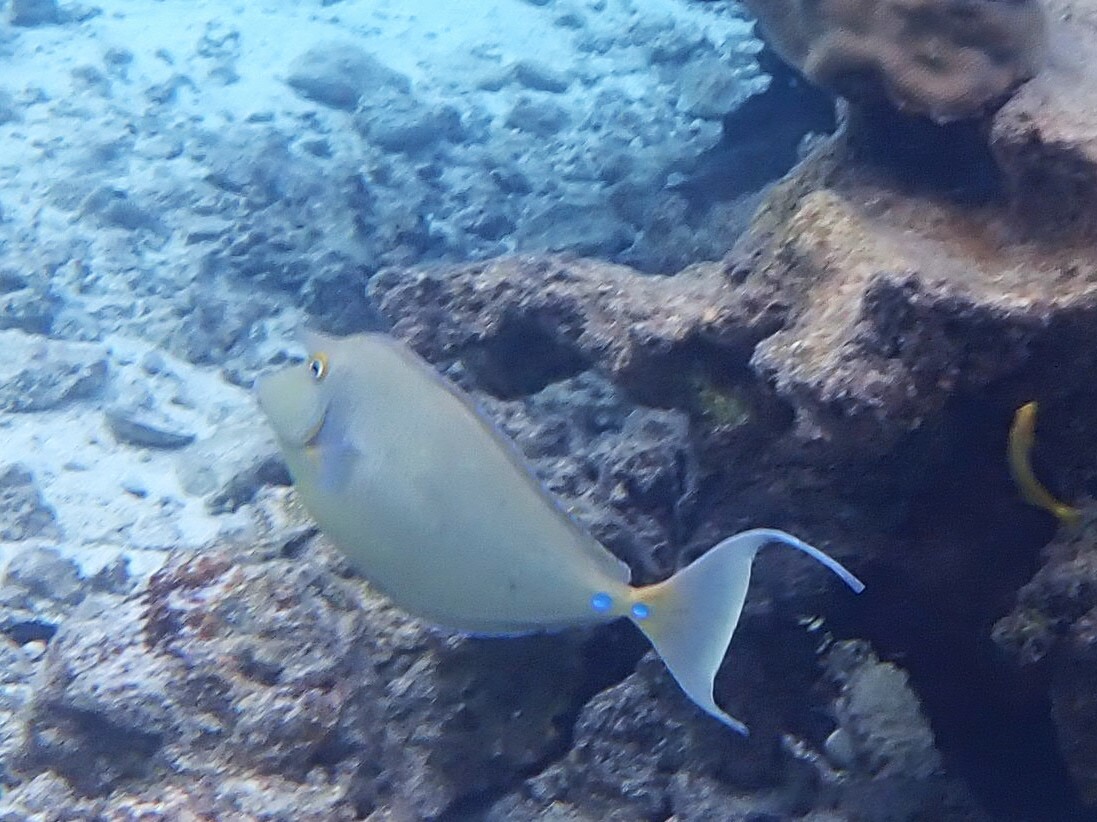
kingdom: Animalia
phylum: Chordata
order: Perciformes
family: Acanthuridae
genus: Naso
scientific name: Naso unicornis
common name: Bluespine unicornfish
